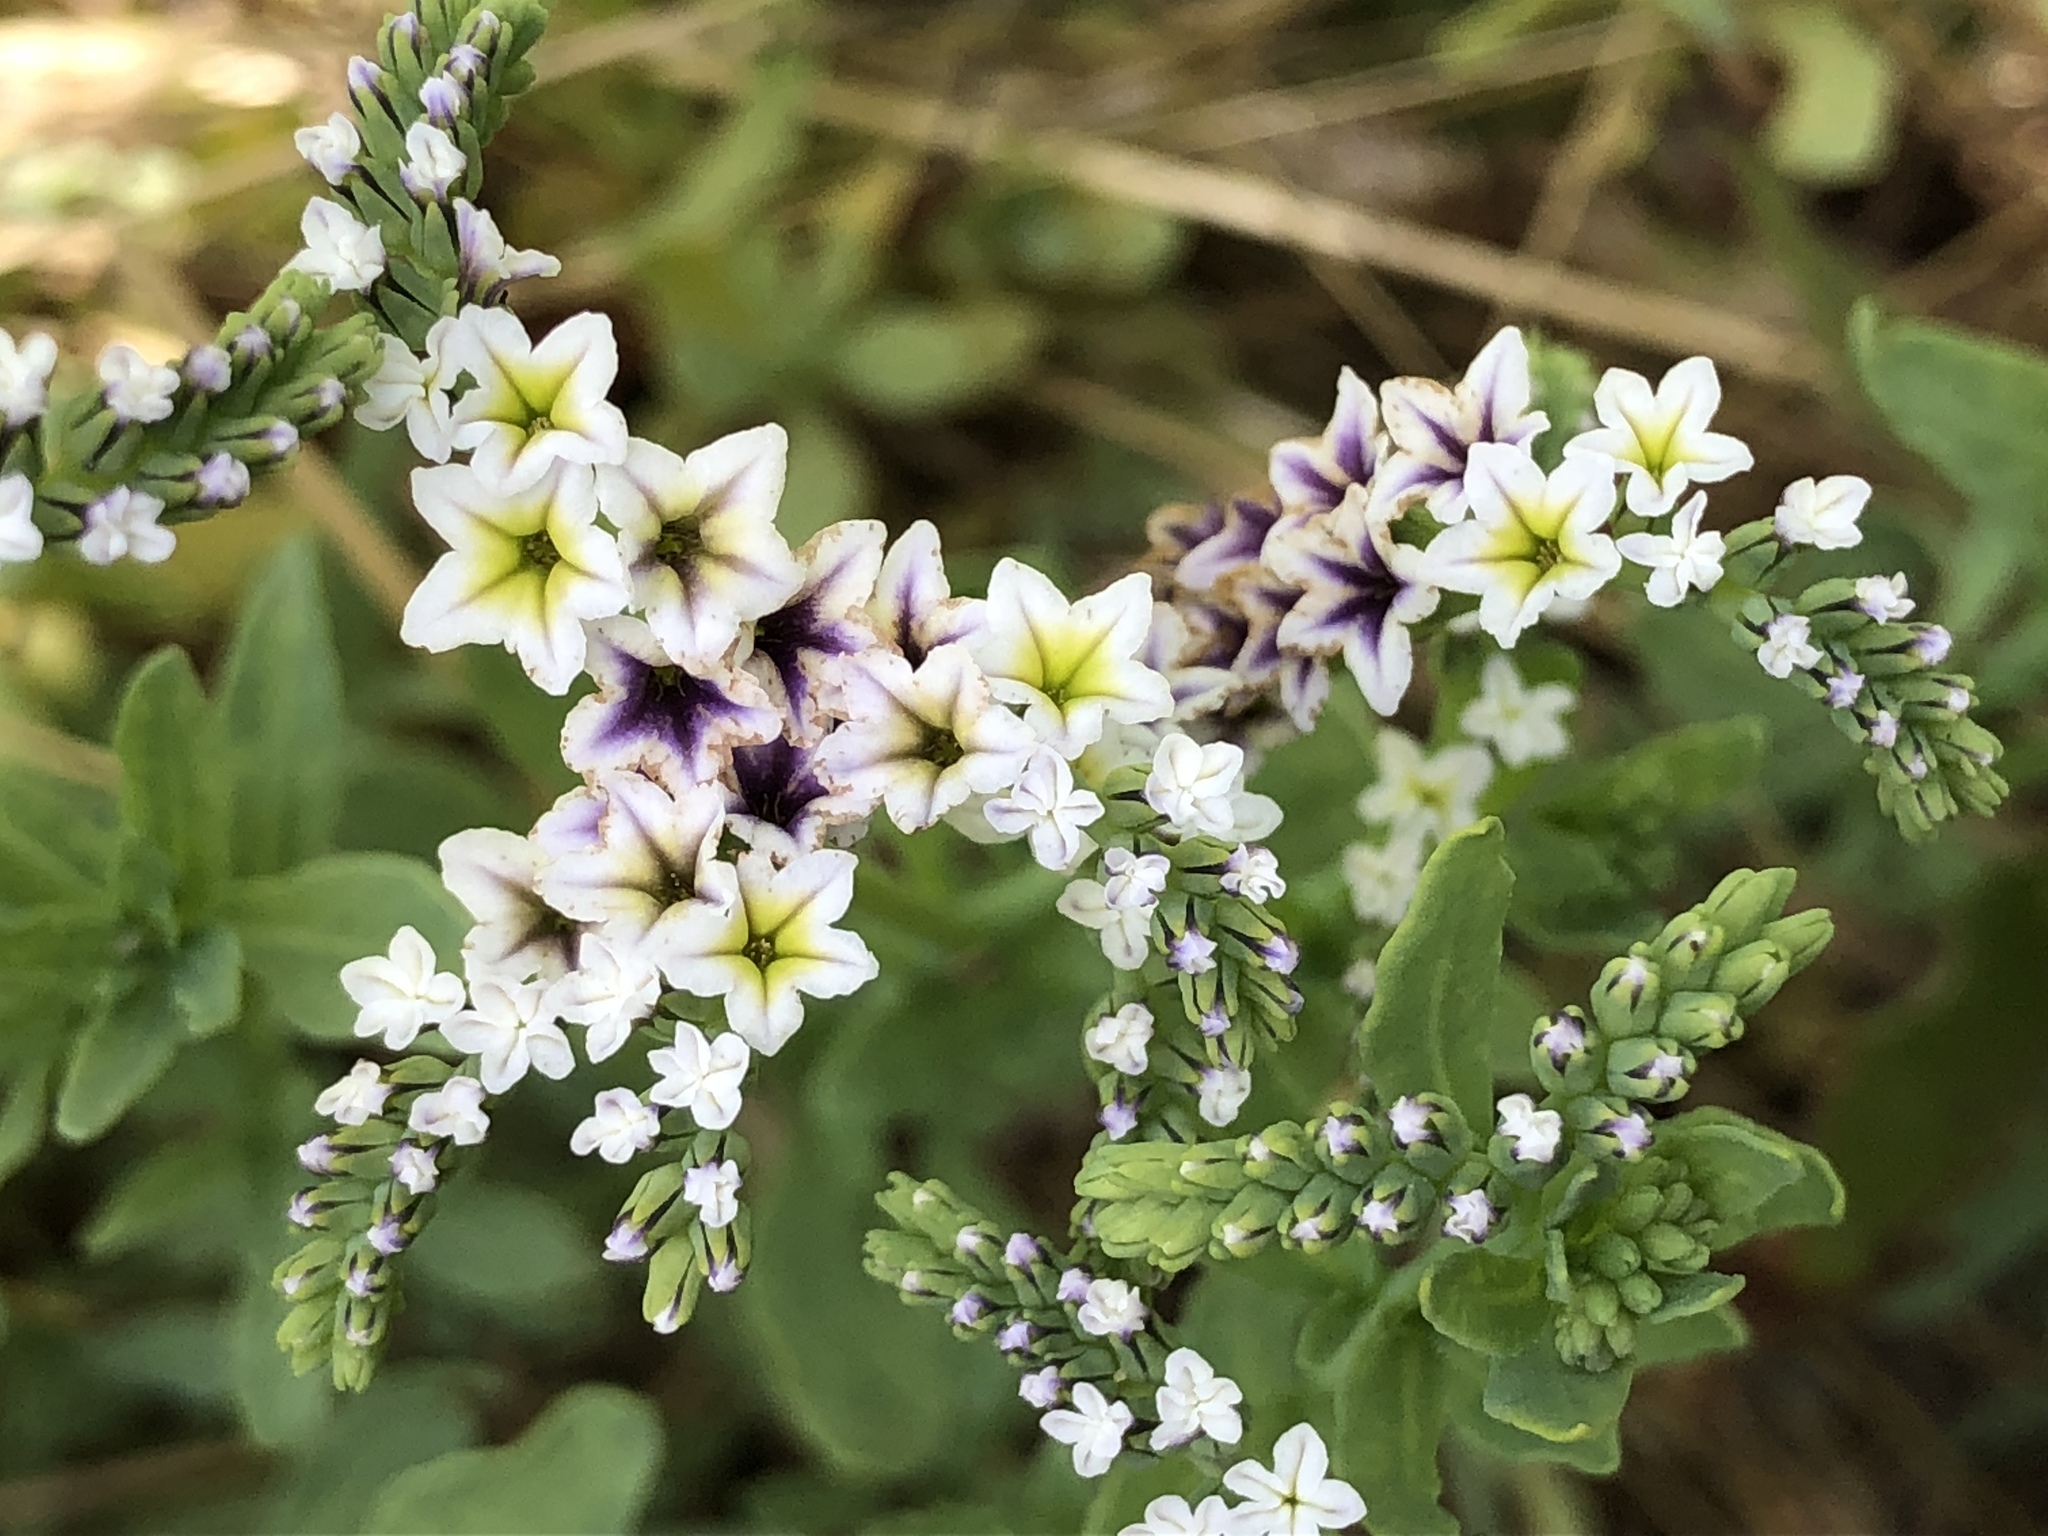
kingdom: Plantae
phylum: Tracheophyta
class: Magnoliopsida
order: Boraginales
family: Heliotropiaceae
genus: Heliotropium
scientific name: Heliotropium curassavicum
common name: Seaside heliotrope
